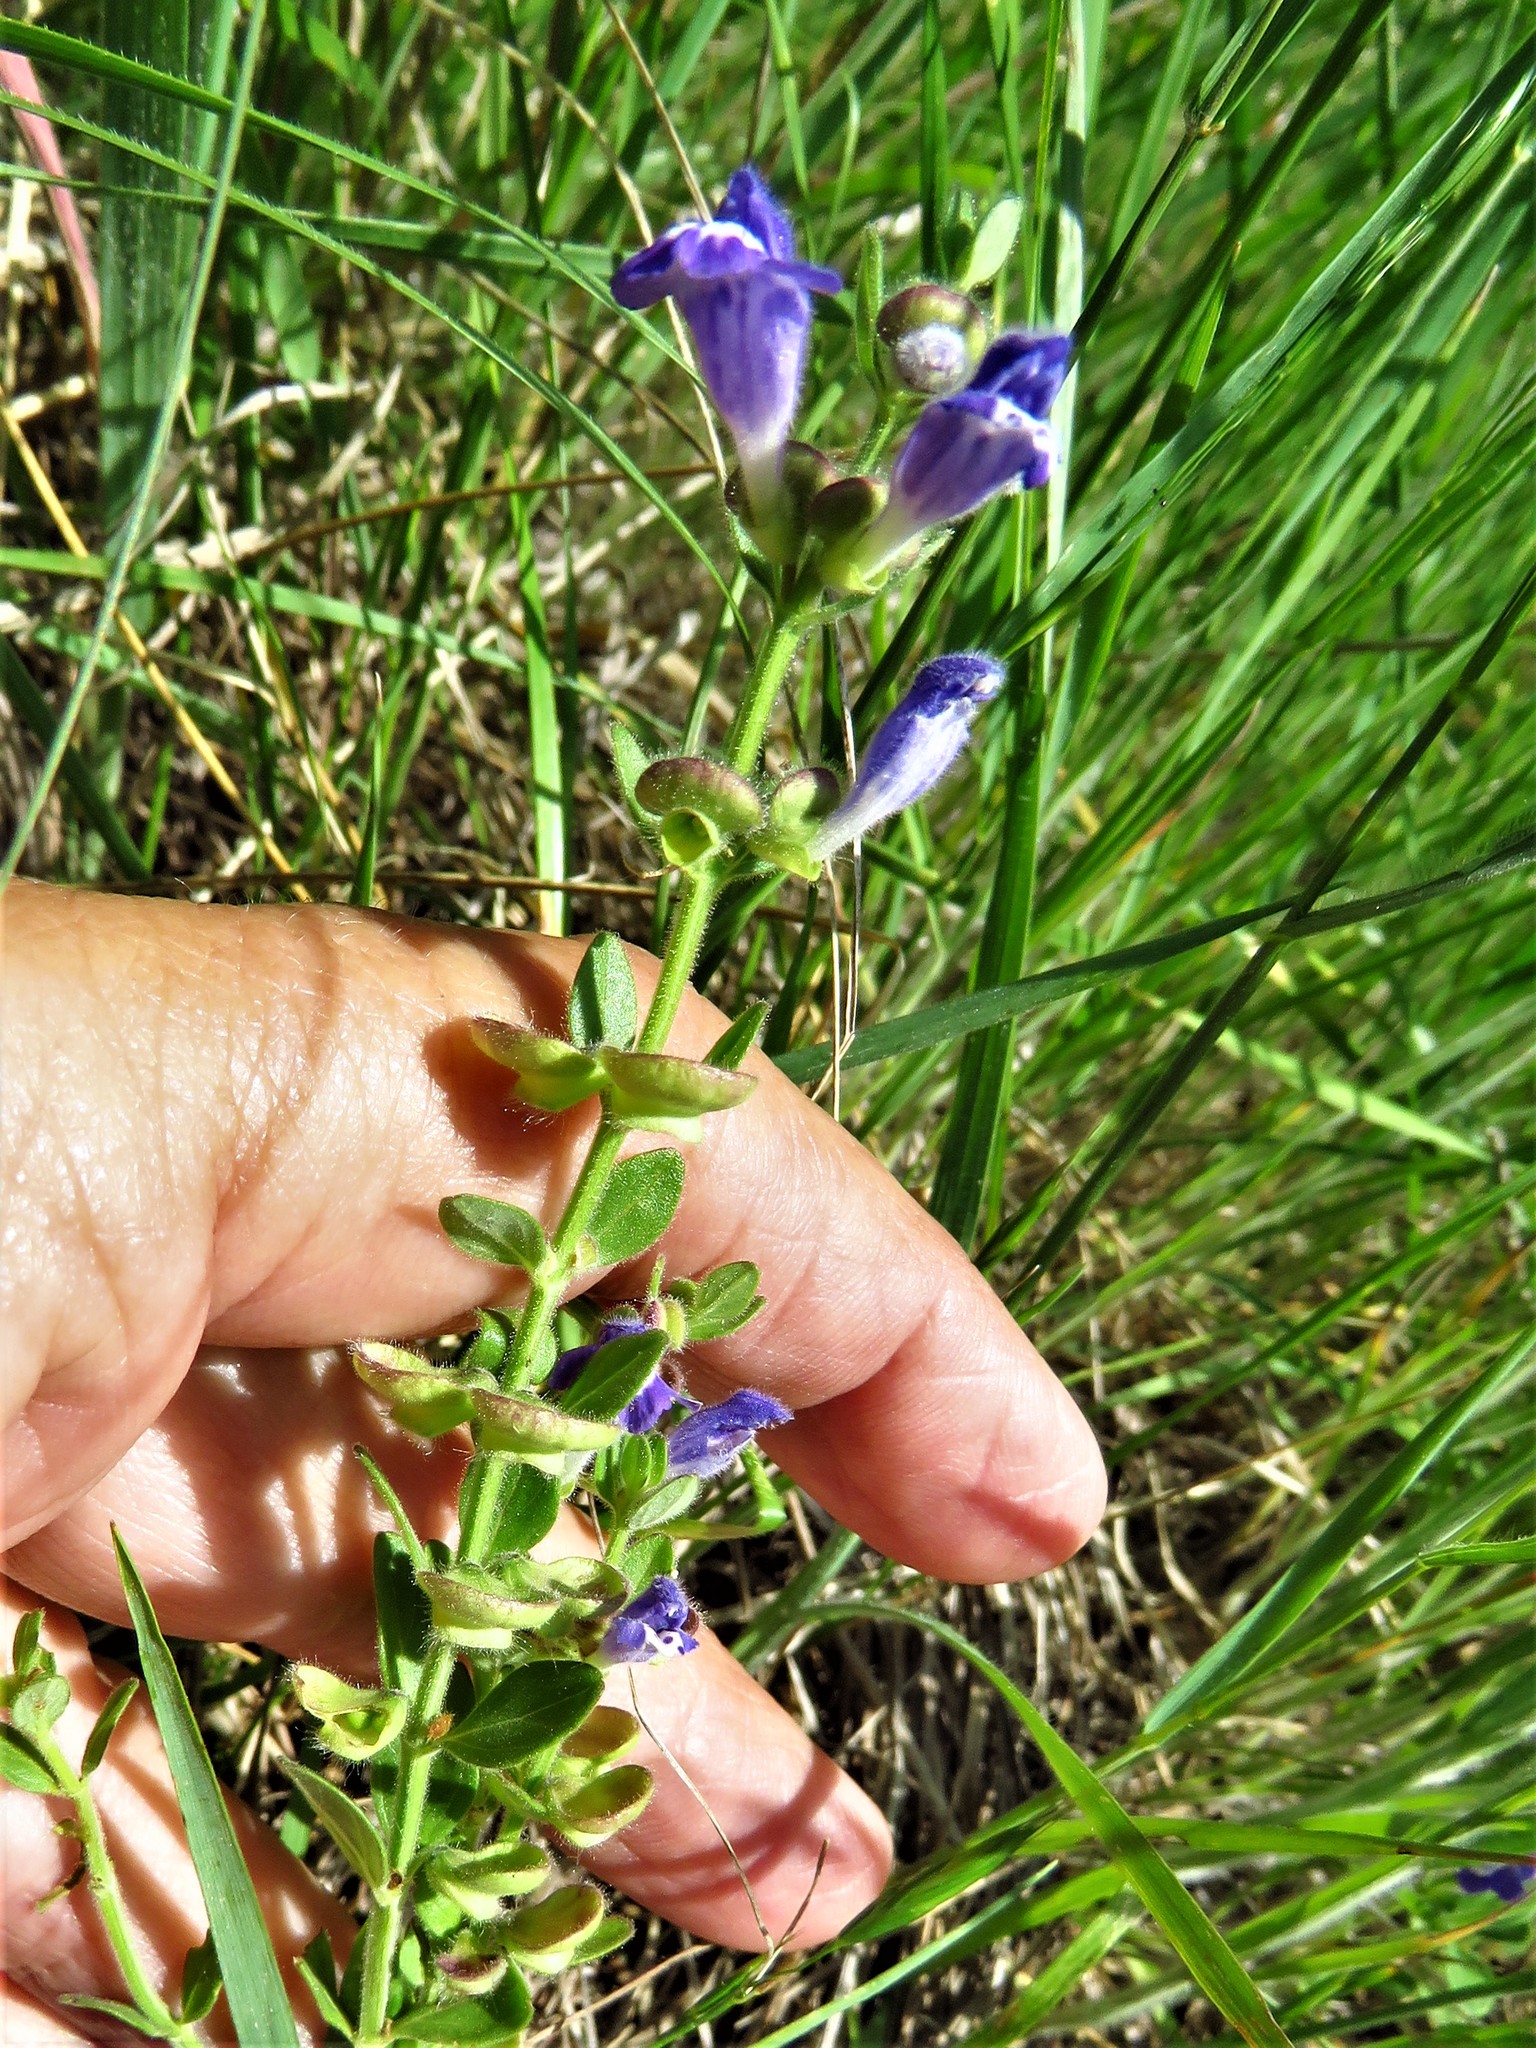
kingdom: Plantae
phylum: Tracheophyta
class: Magnoliopsida
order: Lamiales
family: Lamiaceae
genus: Scutellaria
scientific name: Scutellaria drummondii
